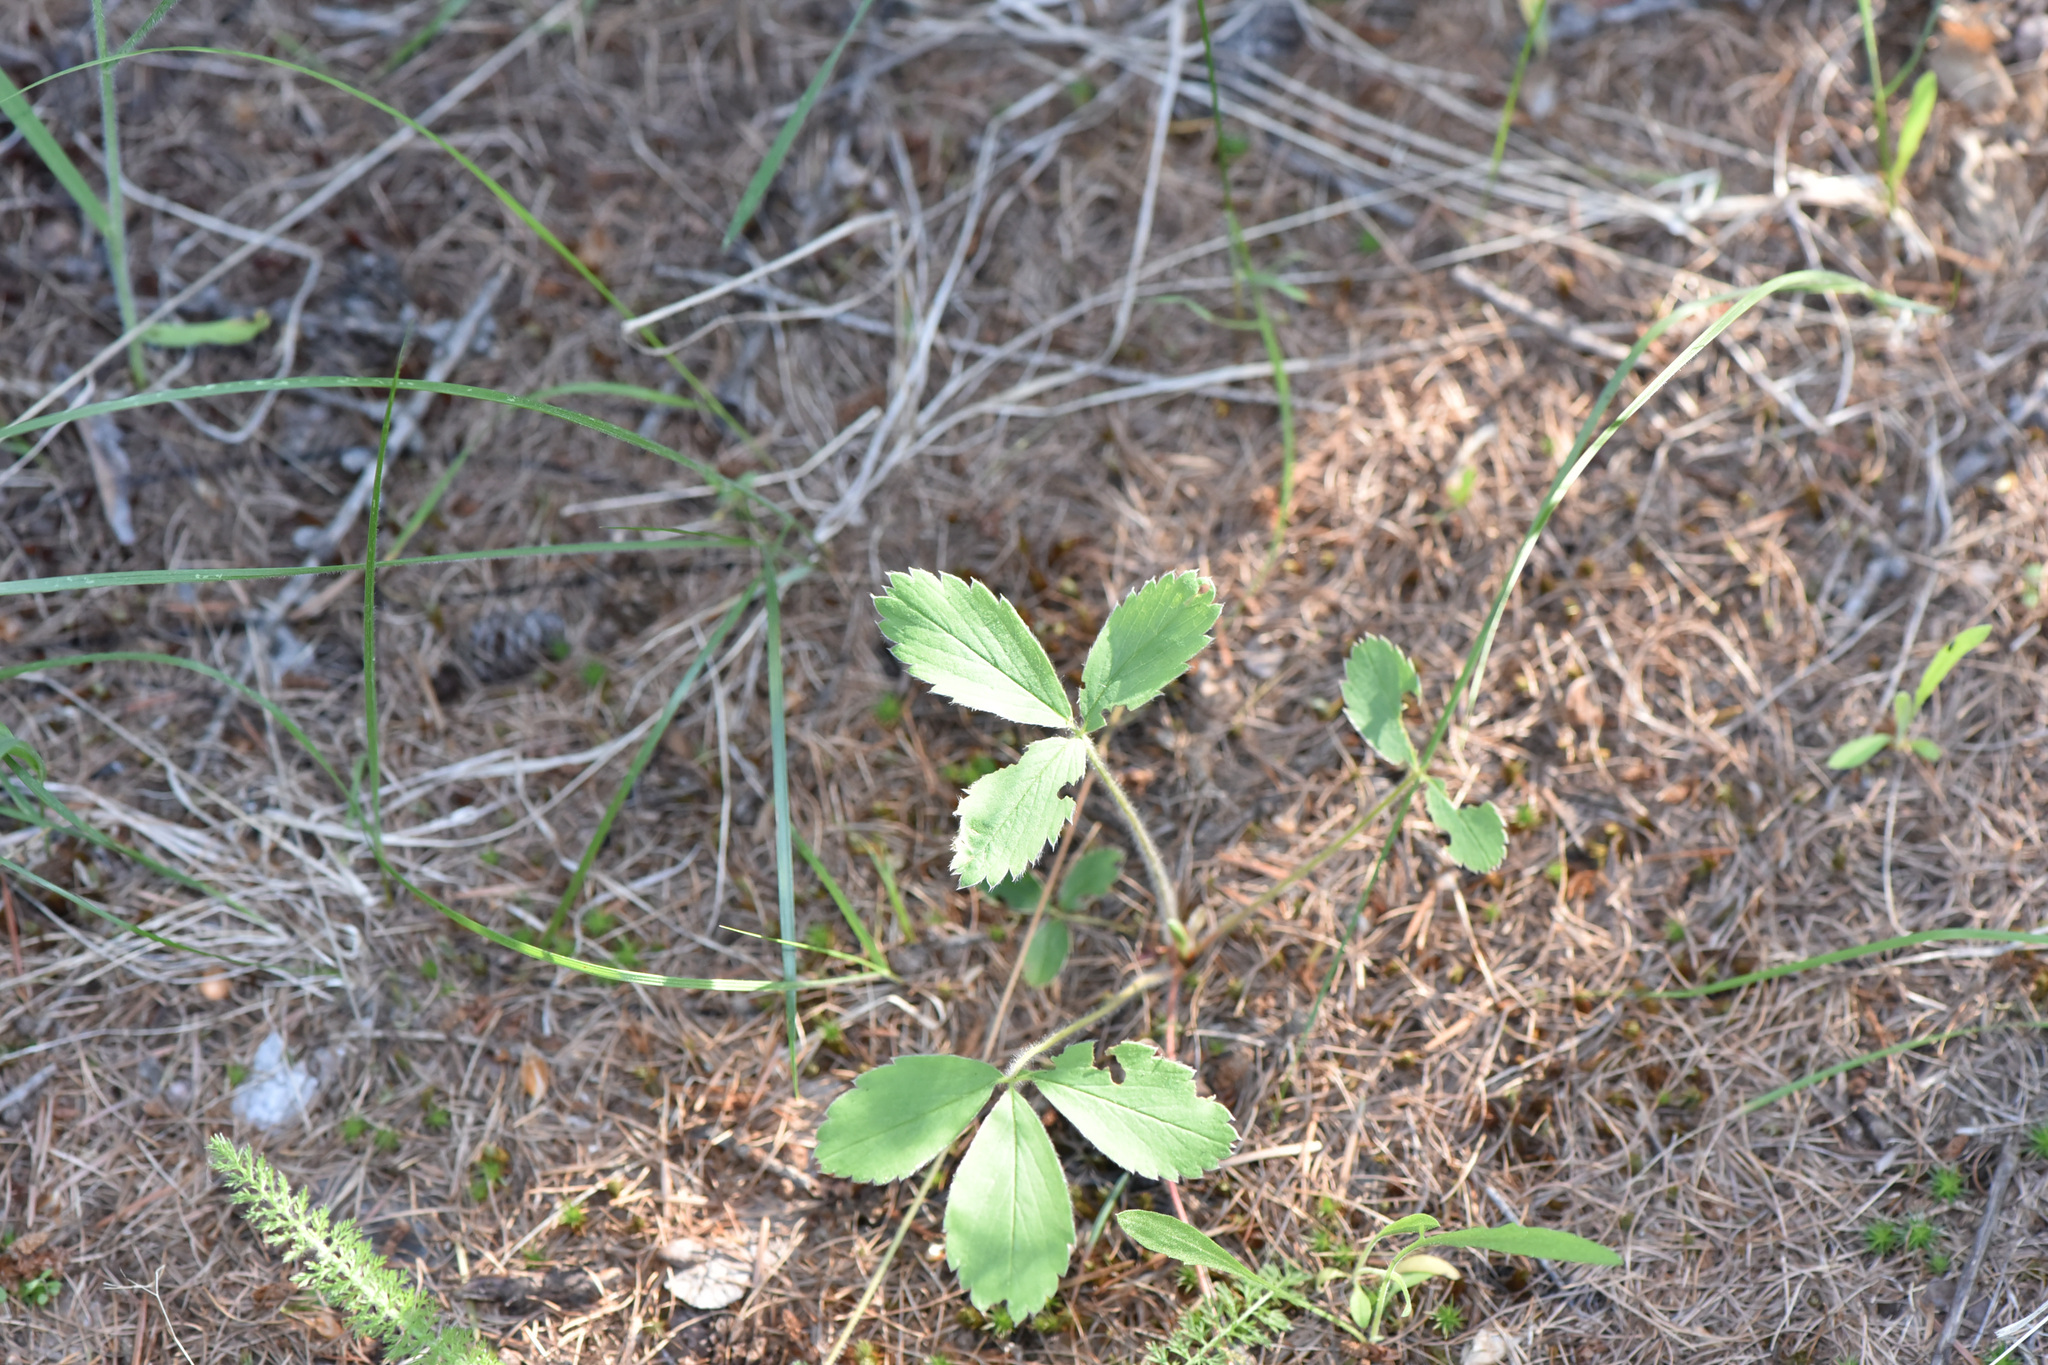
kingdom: Plantae
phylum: Tracheophyta
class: Magnoliopsida
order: Rosales
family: Rosaceae
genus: Fragaria
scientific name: Fragaria virginiana
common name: Thickleaved wild strawberry
